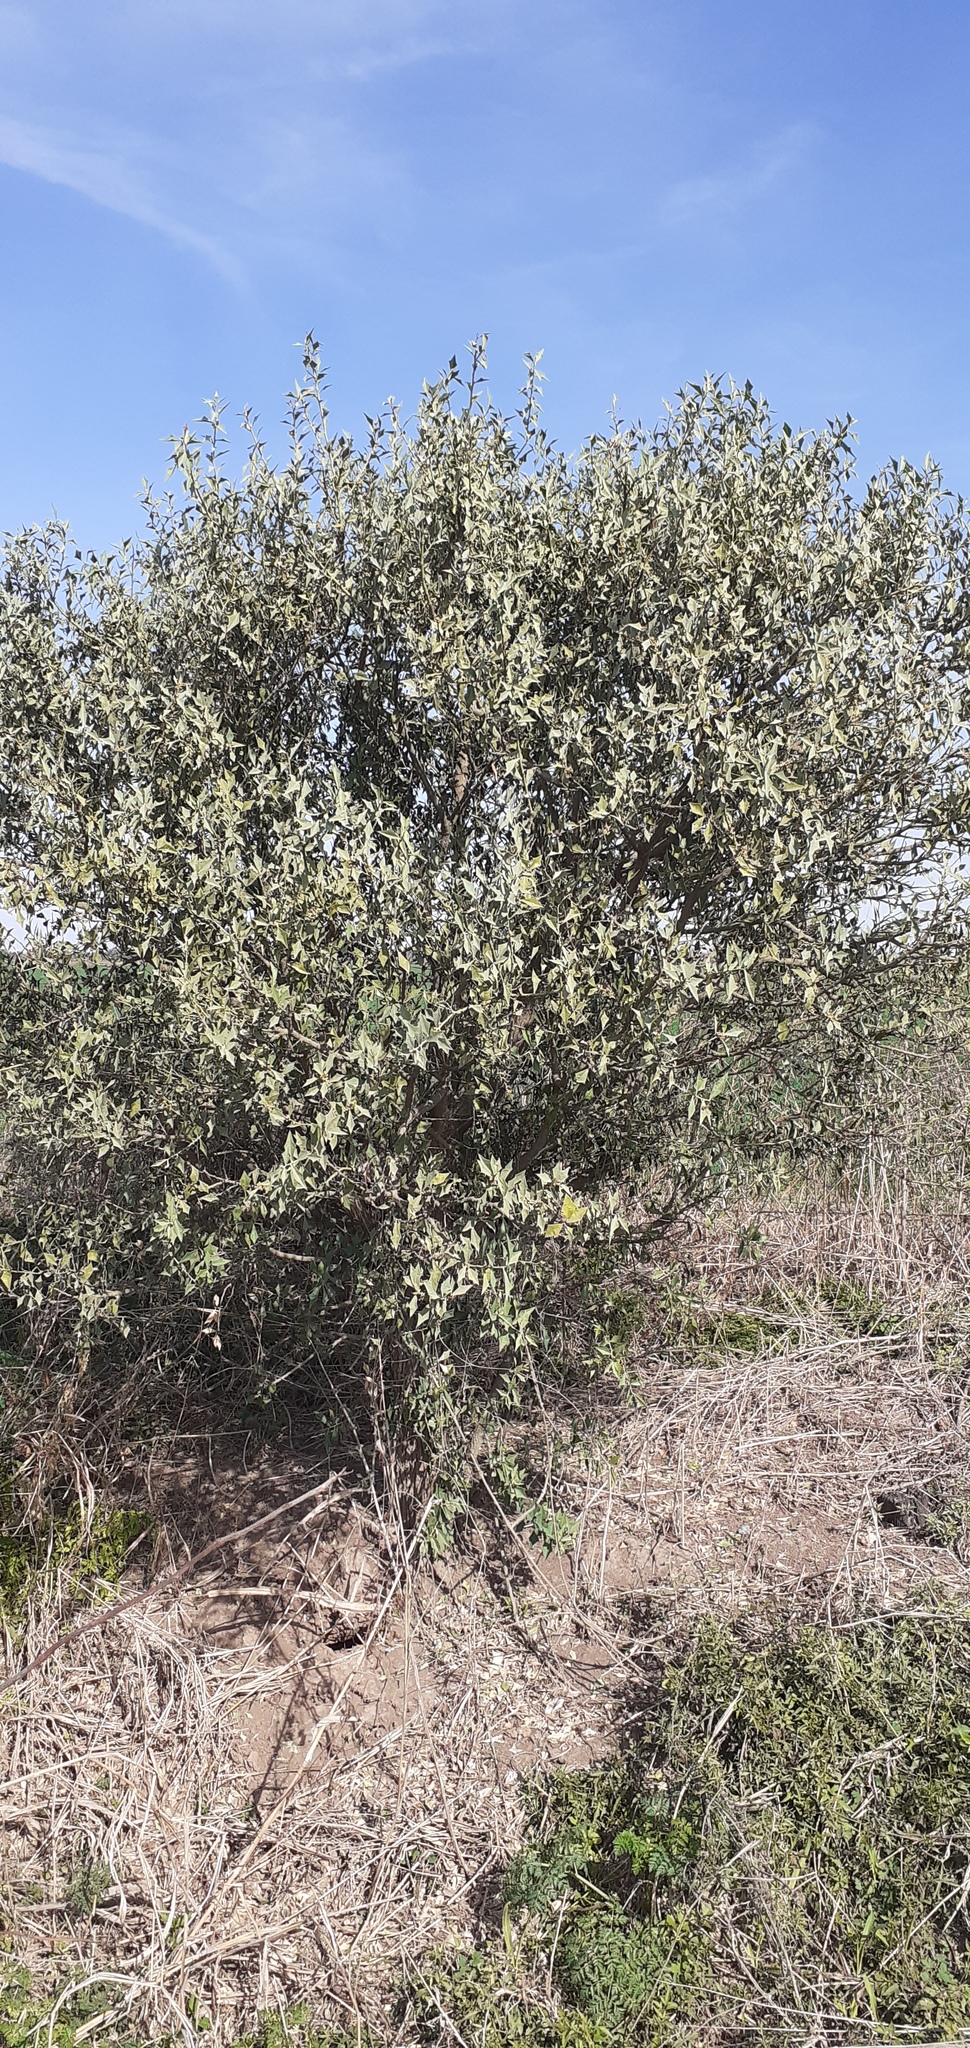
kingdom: Plantae
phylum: Tracheophyta
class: Magnoliopsida
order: Santalales
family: Cervantesiaceae
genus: Jodina
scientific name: Jodina rhombifolia
